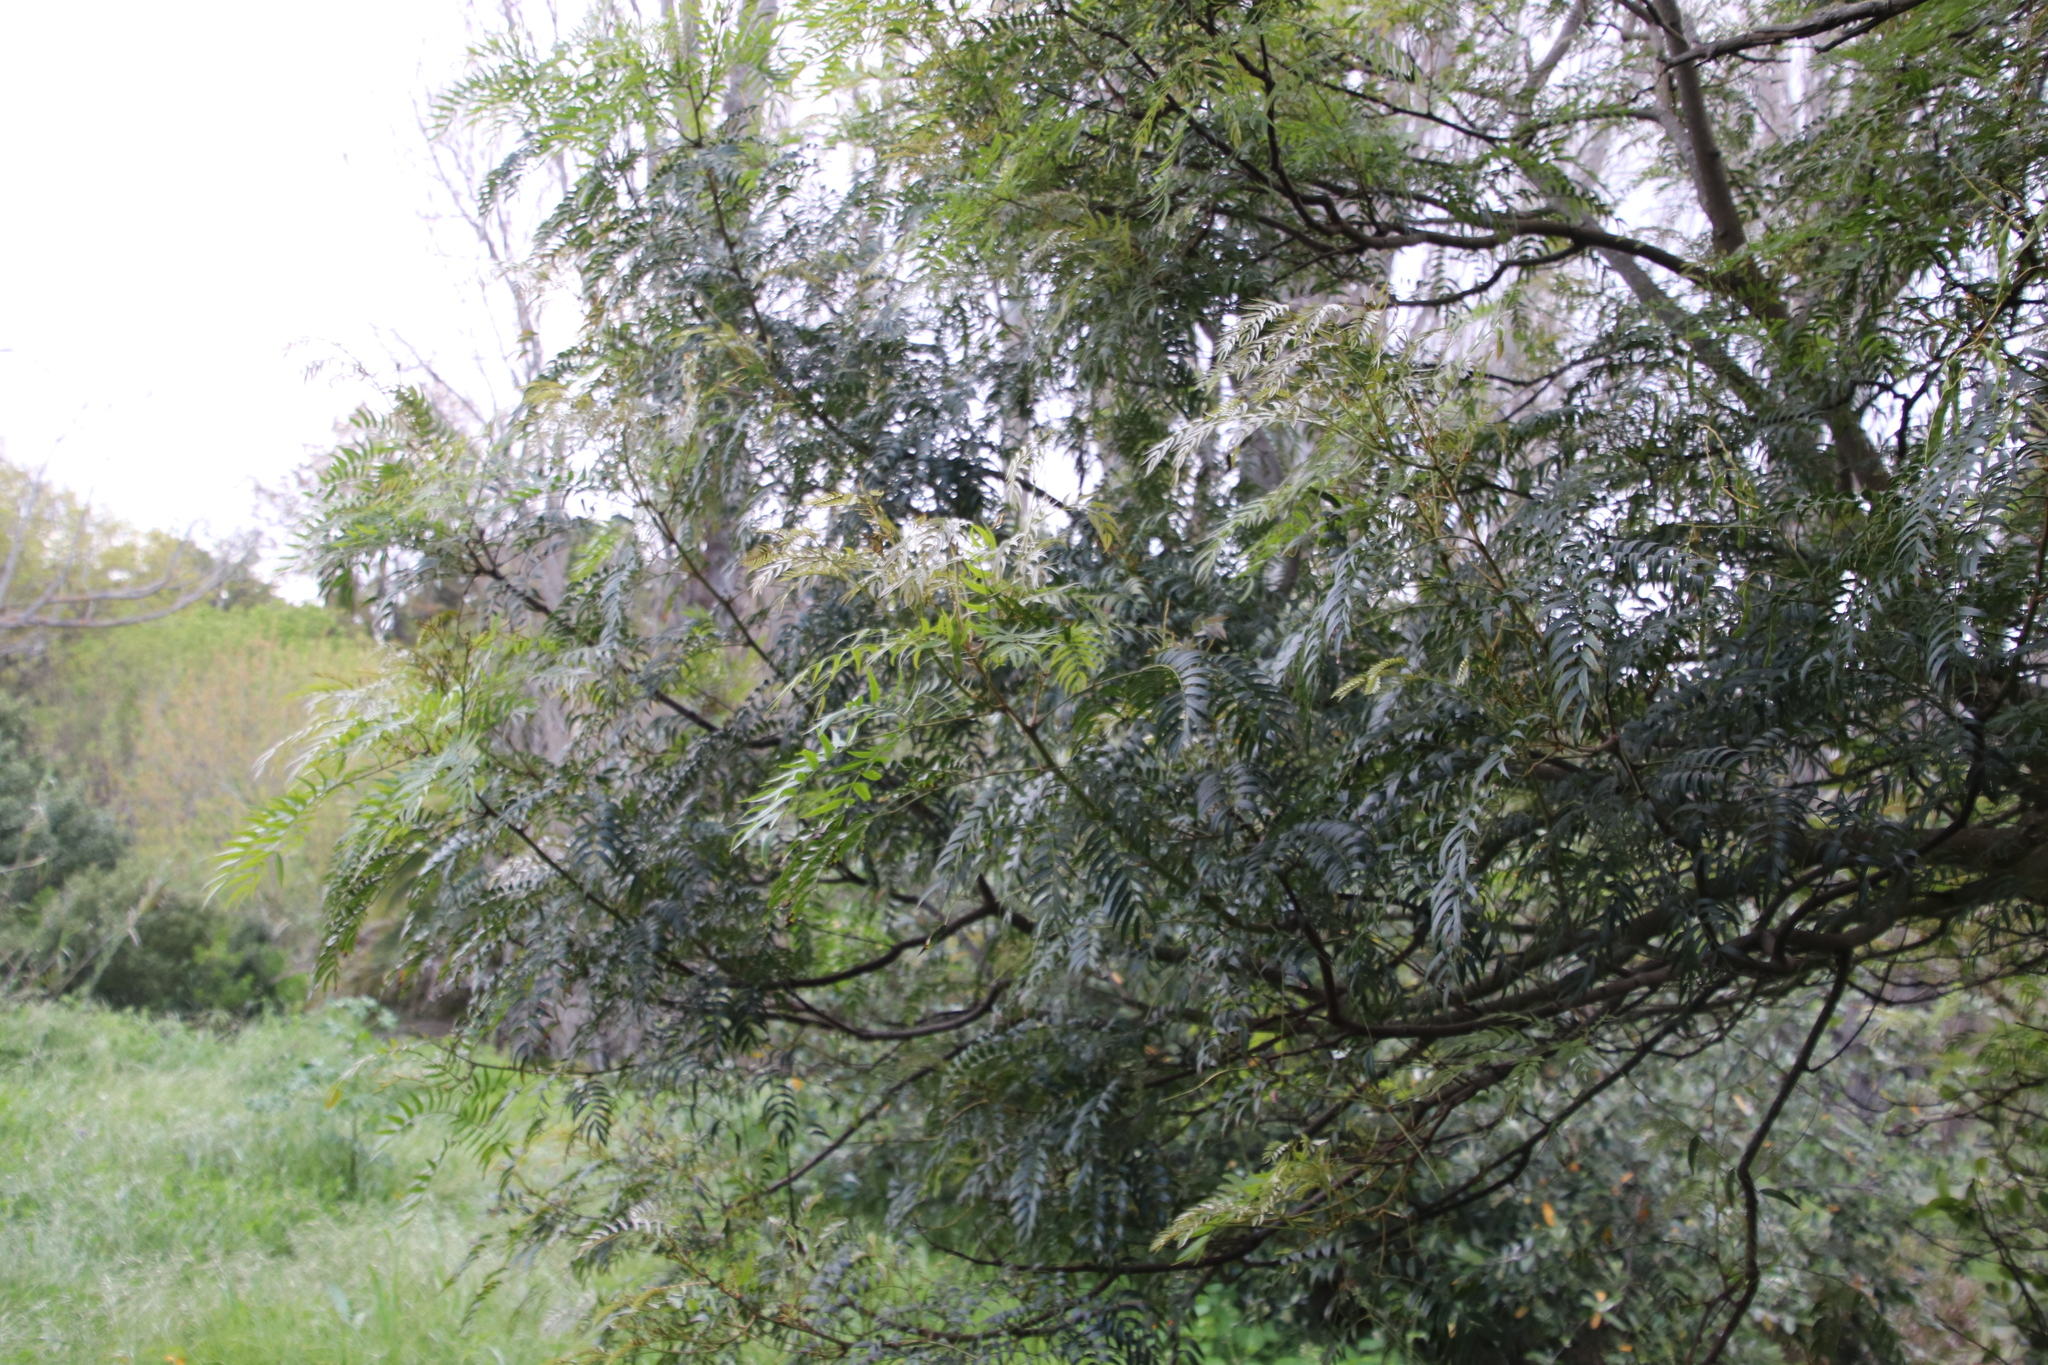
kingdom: Plantae
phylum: Tracheophyta
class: Magnoliopsida
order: Fabales
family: Fabaceae
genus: Acacia
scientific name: Acacia elata
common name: Cedar wattle
